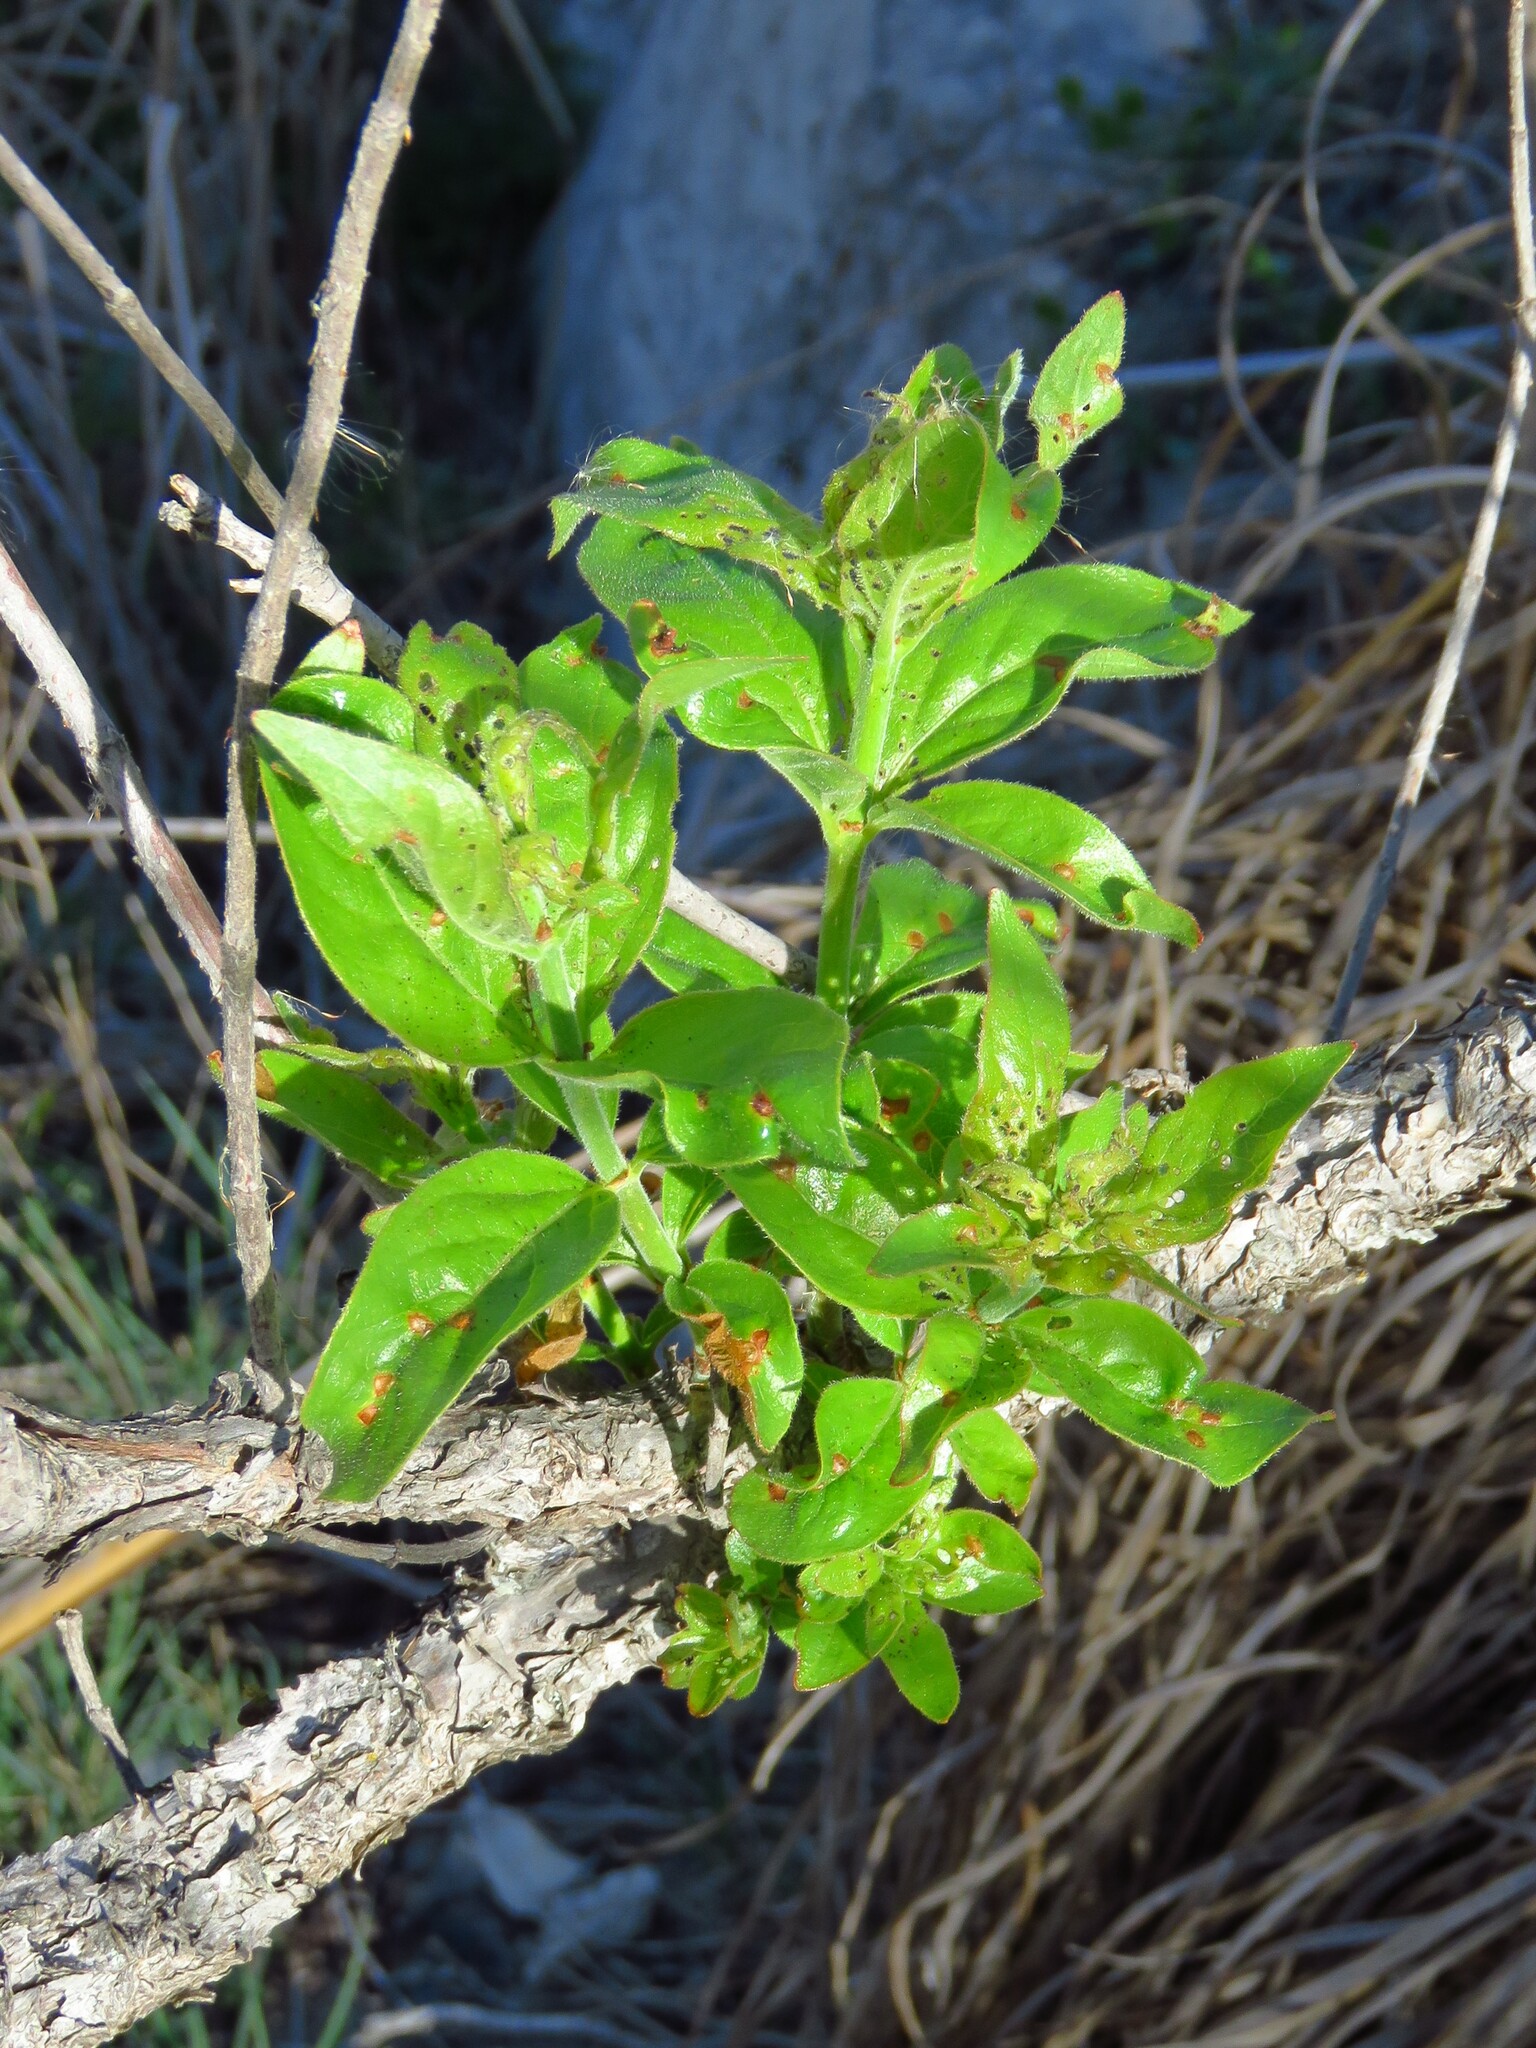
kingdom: Plantae
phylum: Tracheophyta
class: Magnoliopsida
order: Gentianales
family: Rubiaceae
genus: Cephalanthus
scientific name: Cephalanthus occidentalis
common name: Button-willow
